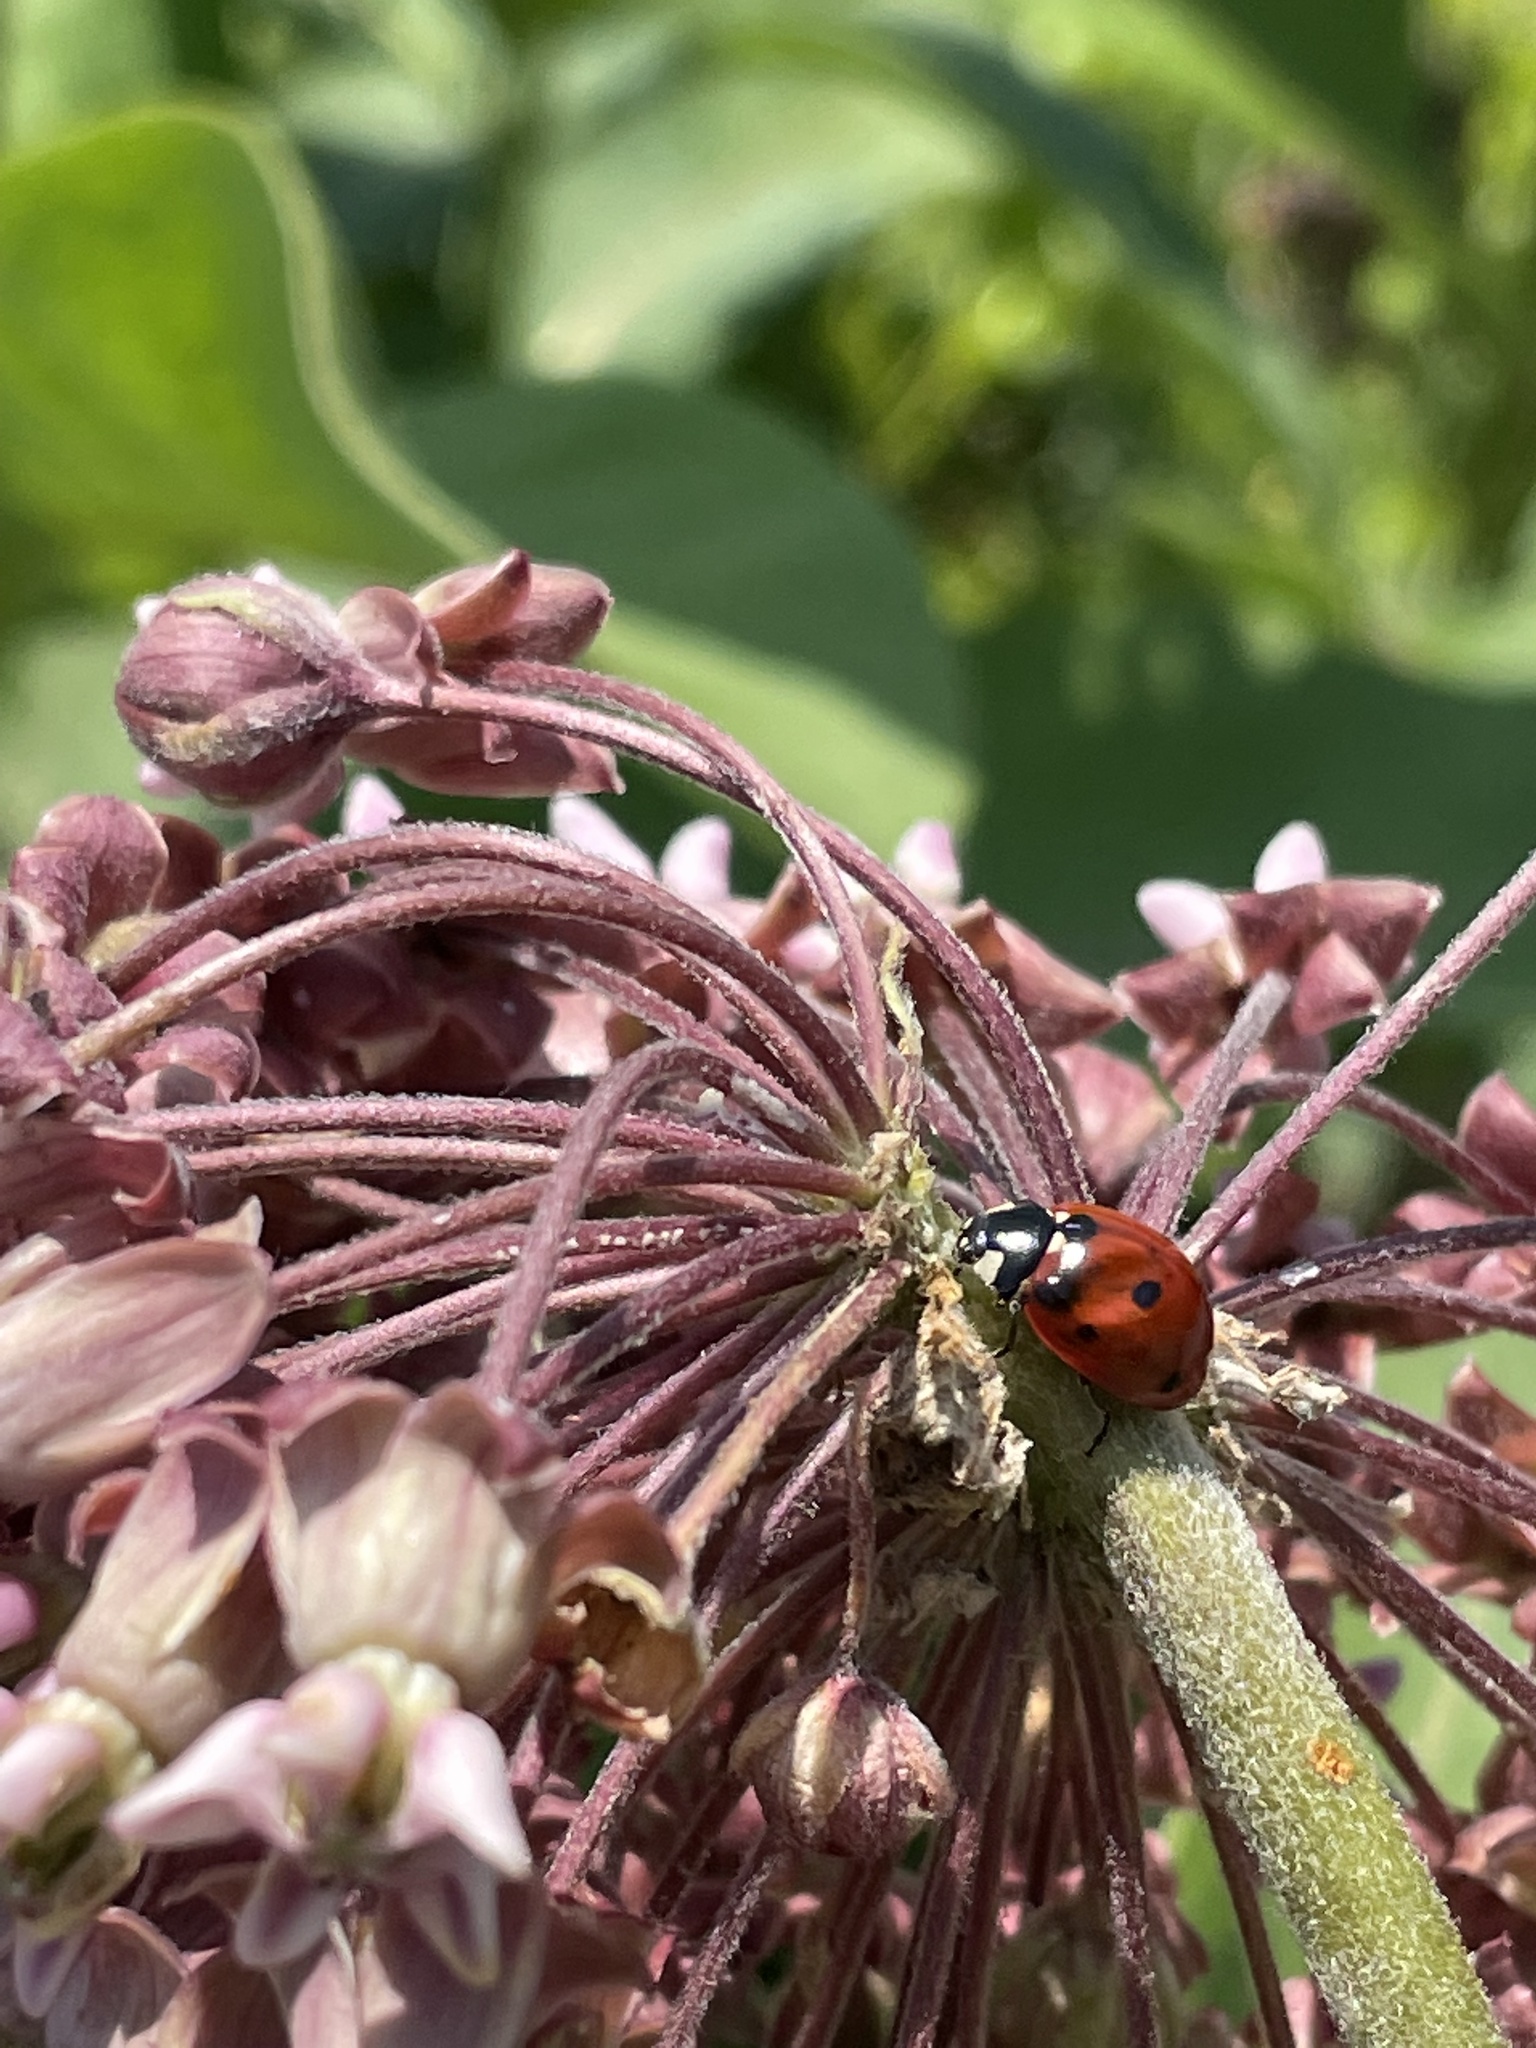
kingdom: Animalia
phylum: Arthropoda
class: Insecta
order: Coleoptera
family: Coccinellidae
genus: Coccinella
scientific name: Coccinella septempunctata
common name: Sevenspotted lady beetle
